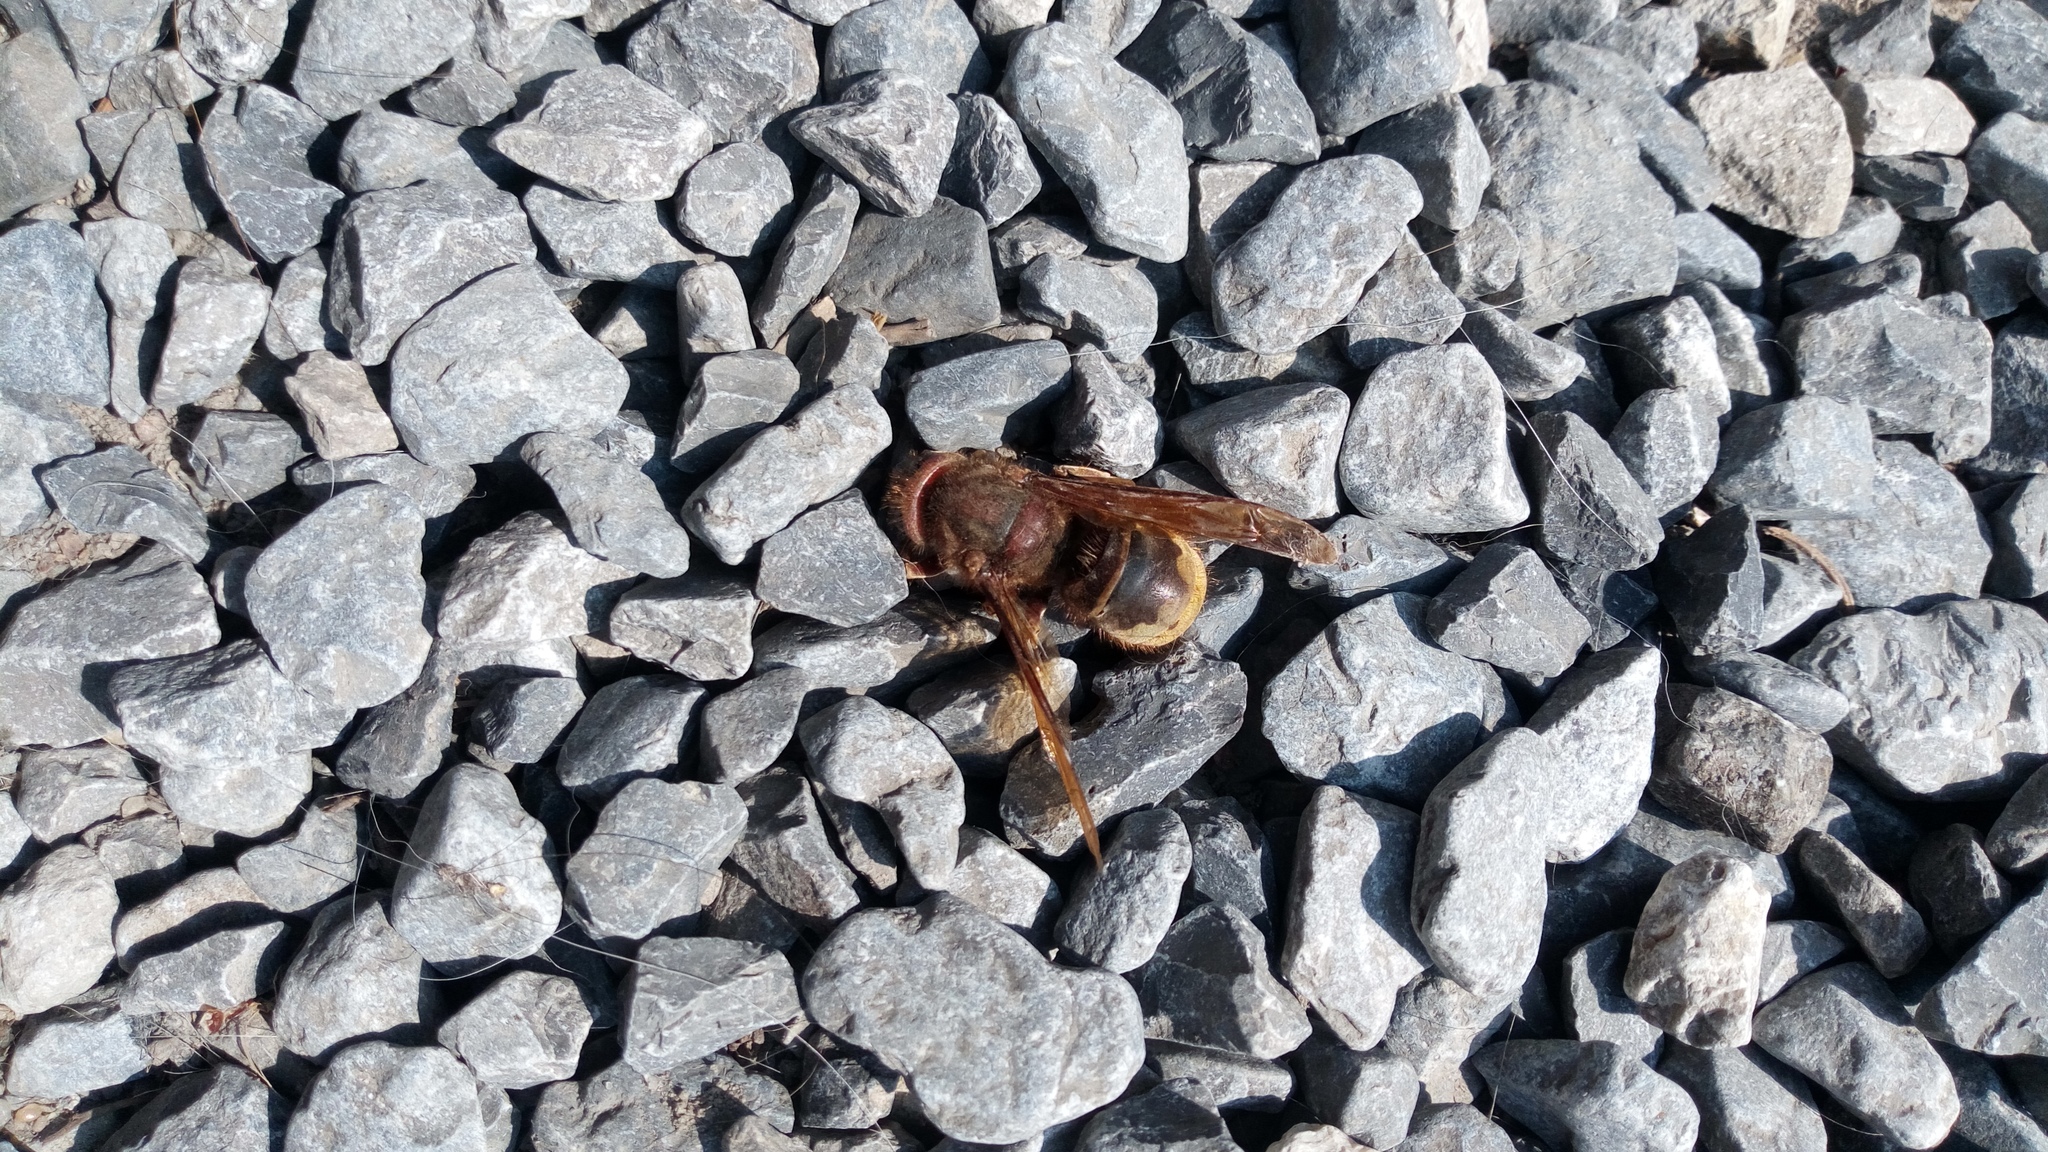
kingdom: Animalia
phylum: Arthropoda
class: Insecta
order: Hymenoptera
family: Vespidae
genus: Vespa
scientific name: Vespa crabro
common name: Hornet
